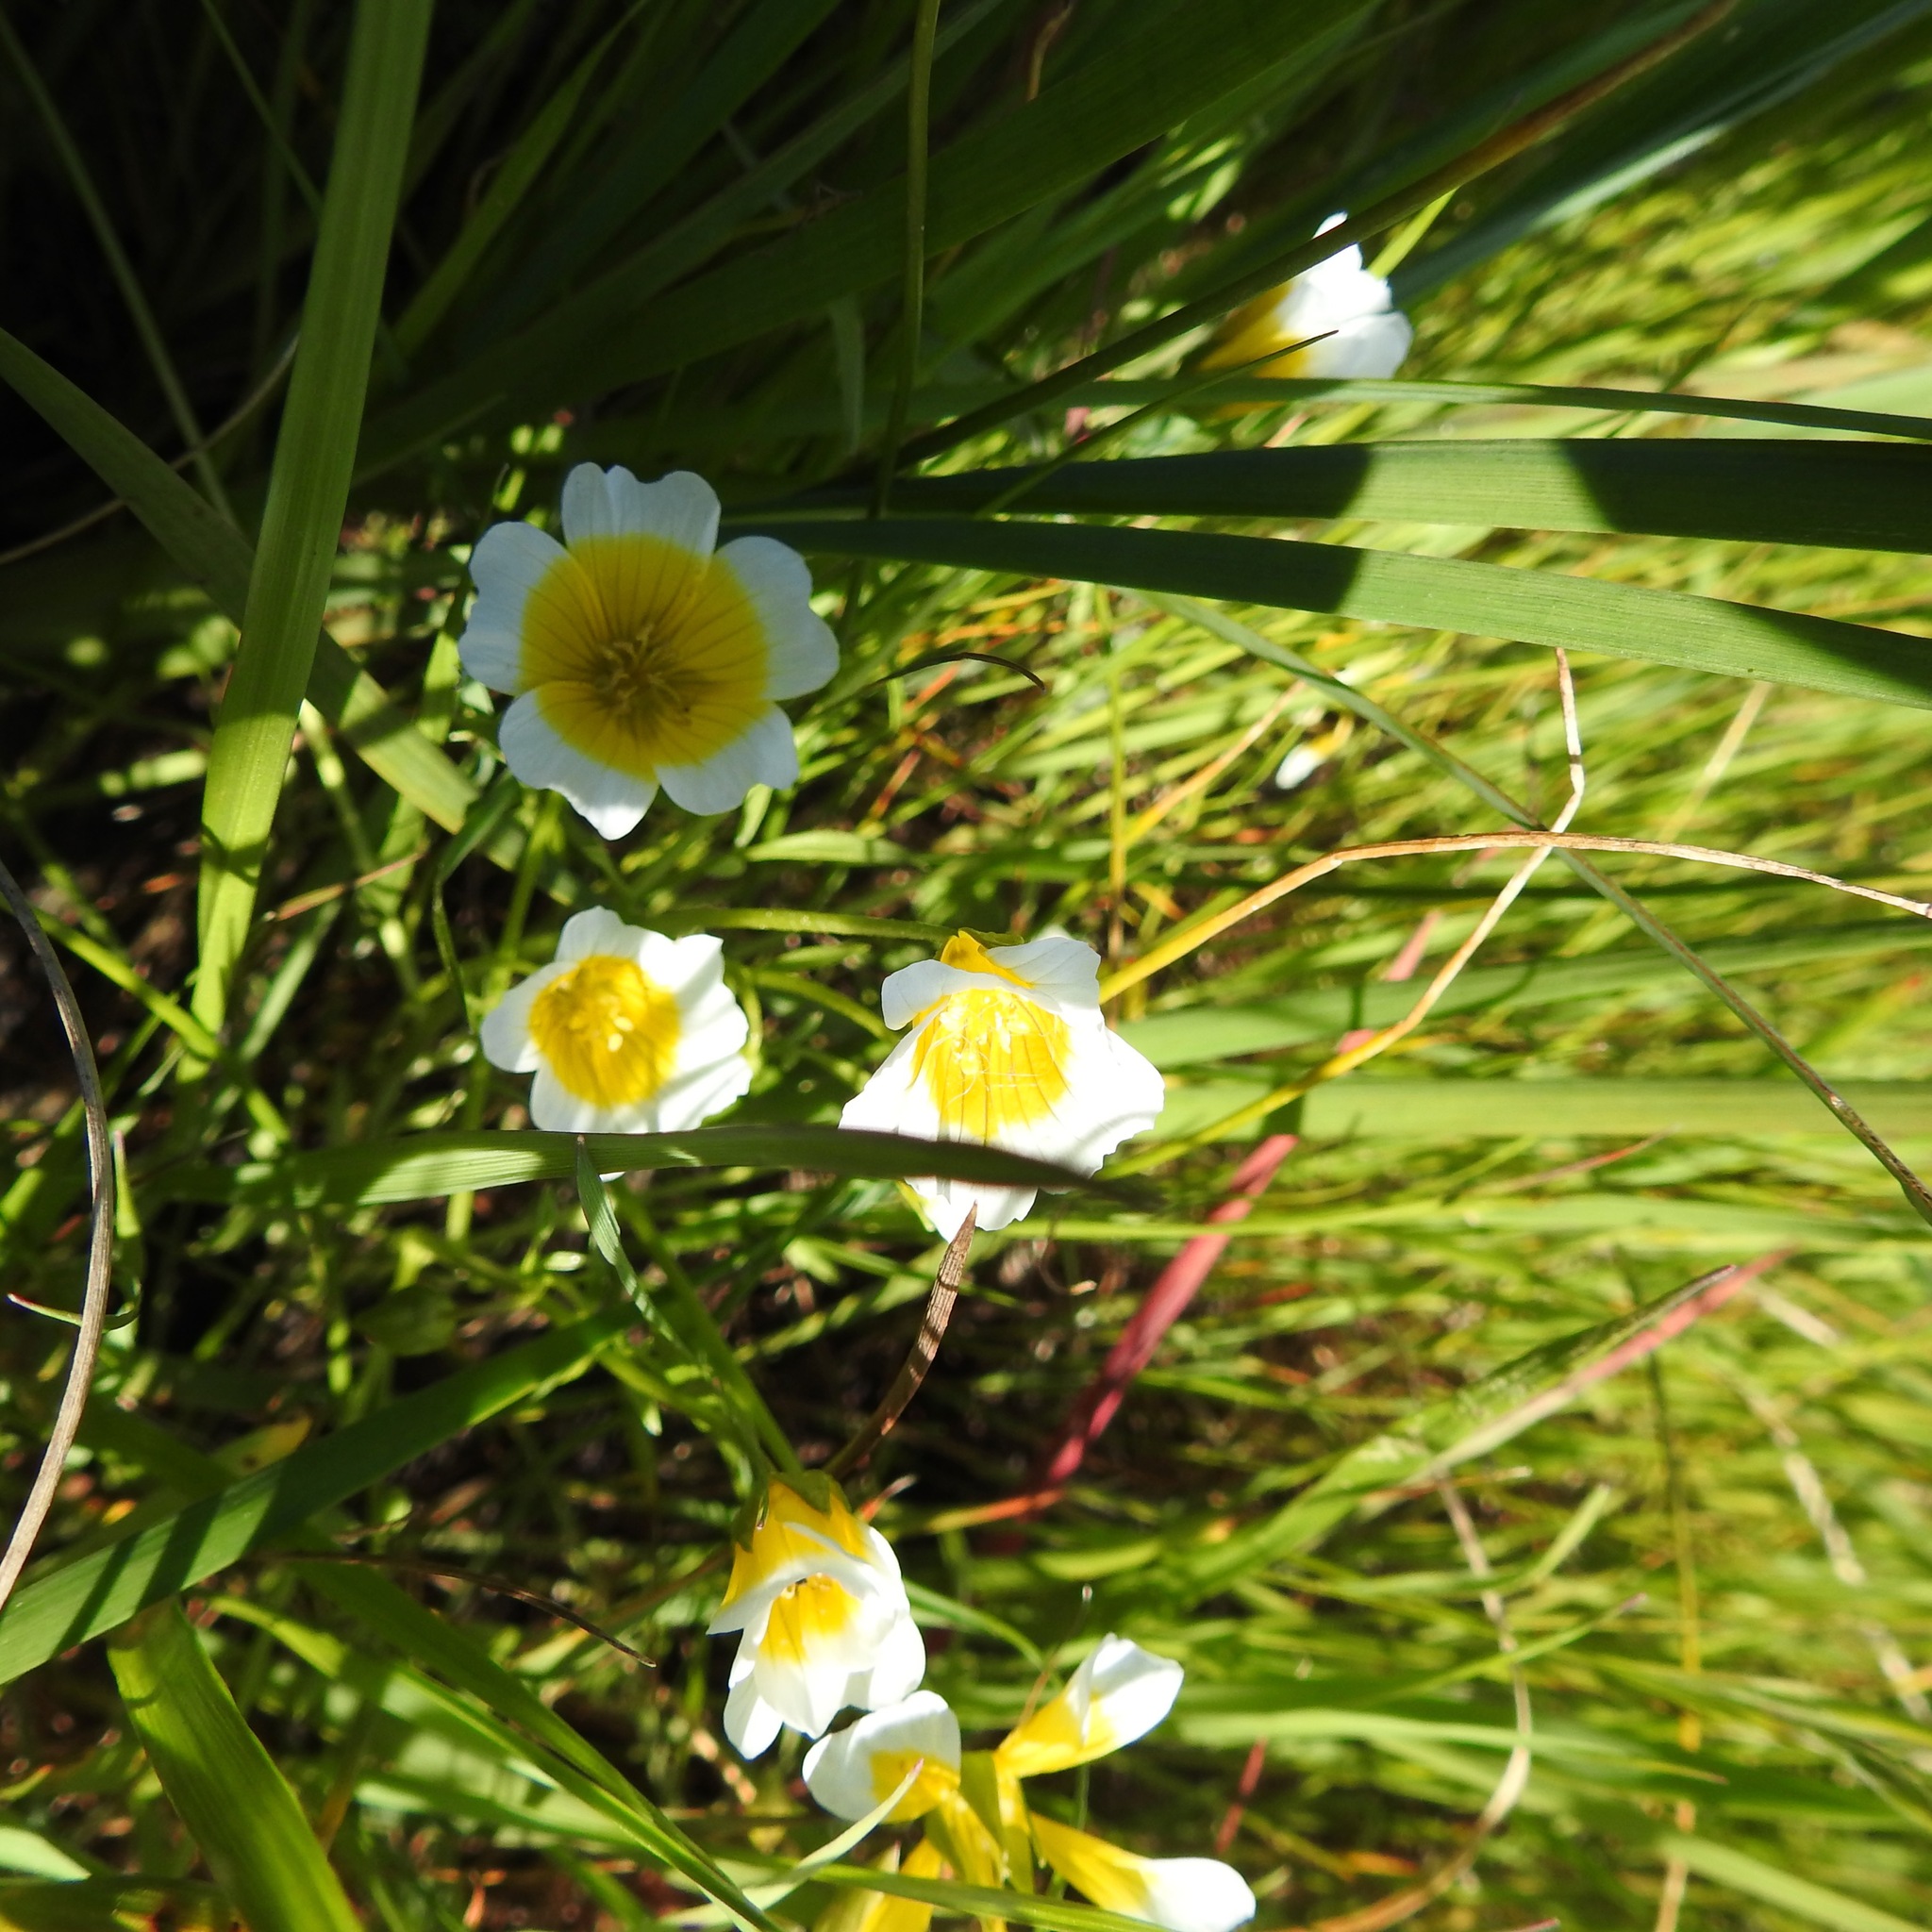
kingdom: Plantae
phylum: Tracheophyta
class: Magnoliopsida
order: Brassicales
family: Limnanthaceae
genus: Limnanthes
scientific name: Limnanthes douglasii
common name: Meadow-foam
